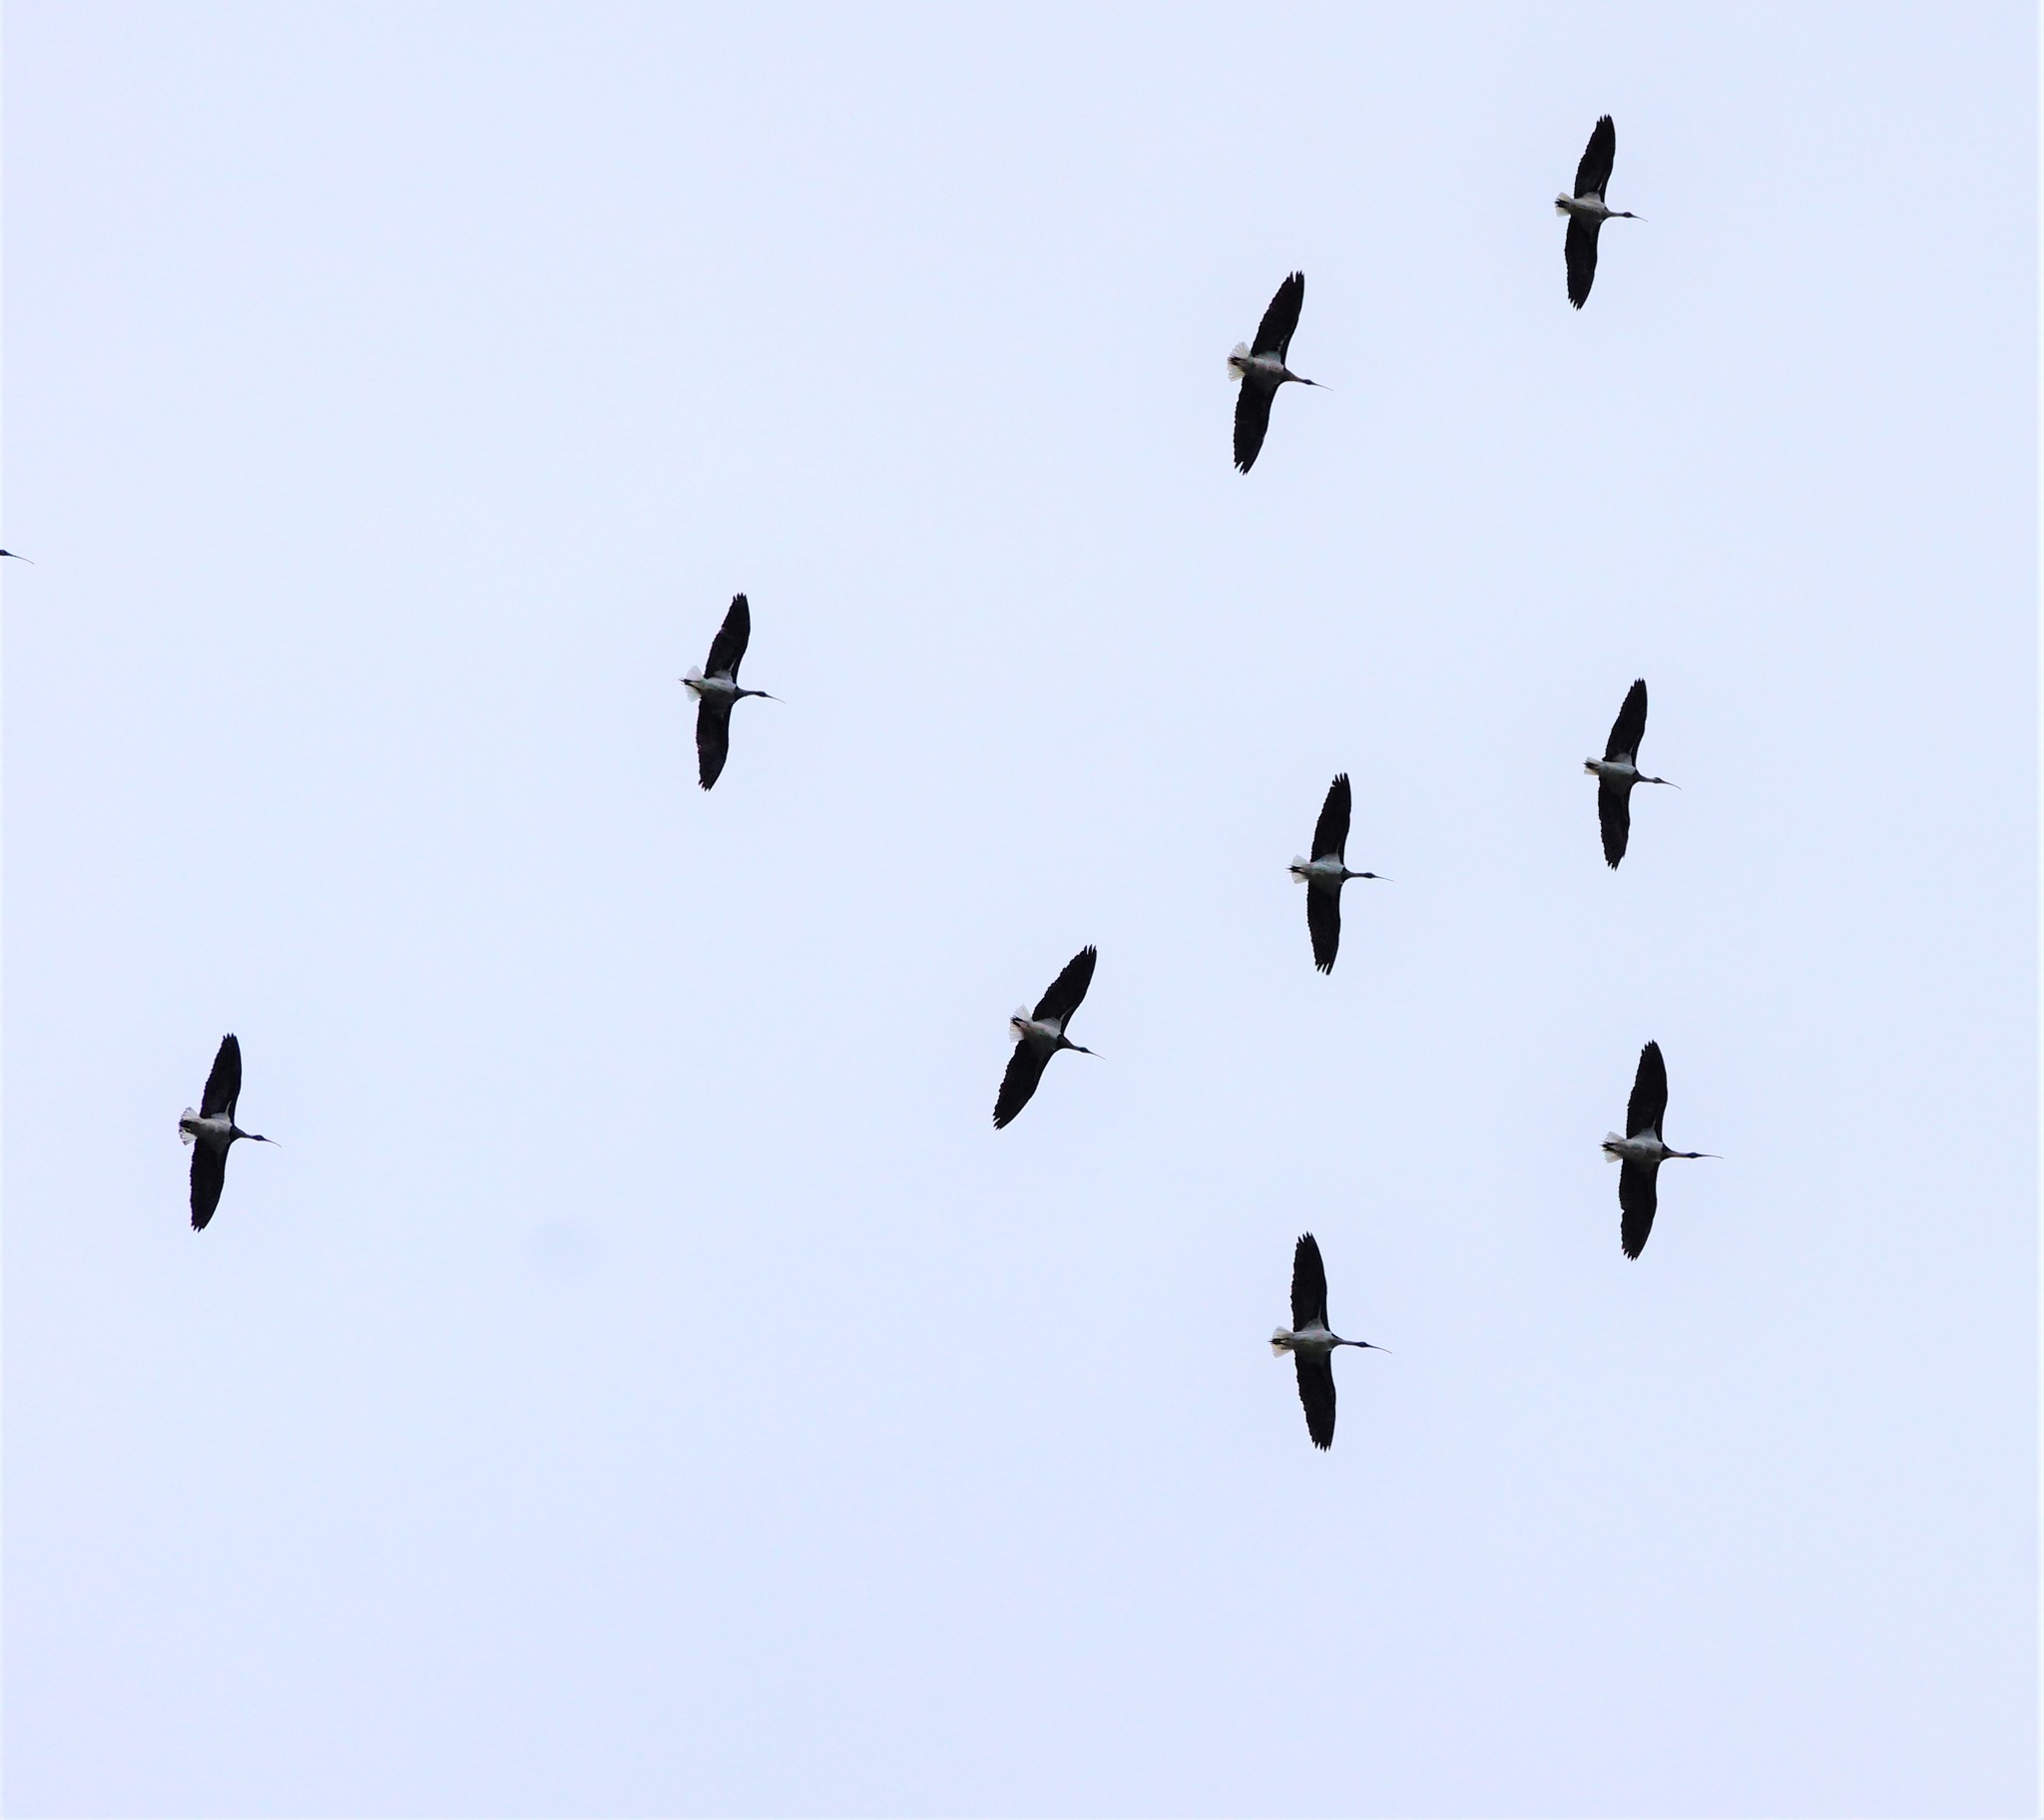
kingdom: Animalia
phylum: Chordata
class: Aves
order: Pelecaniformes
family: Threskiornithidae
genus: Threskiornis
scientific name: Threskiornis spinicollis
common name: Straw-necked ibis
